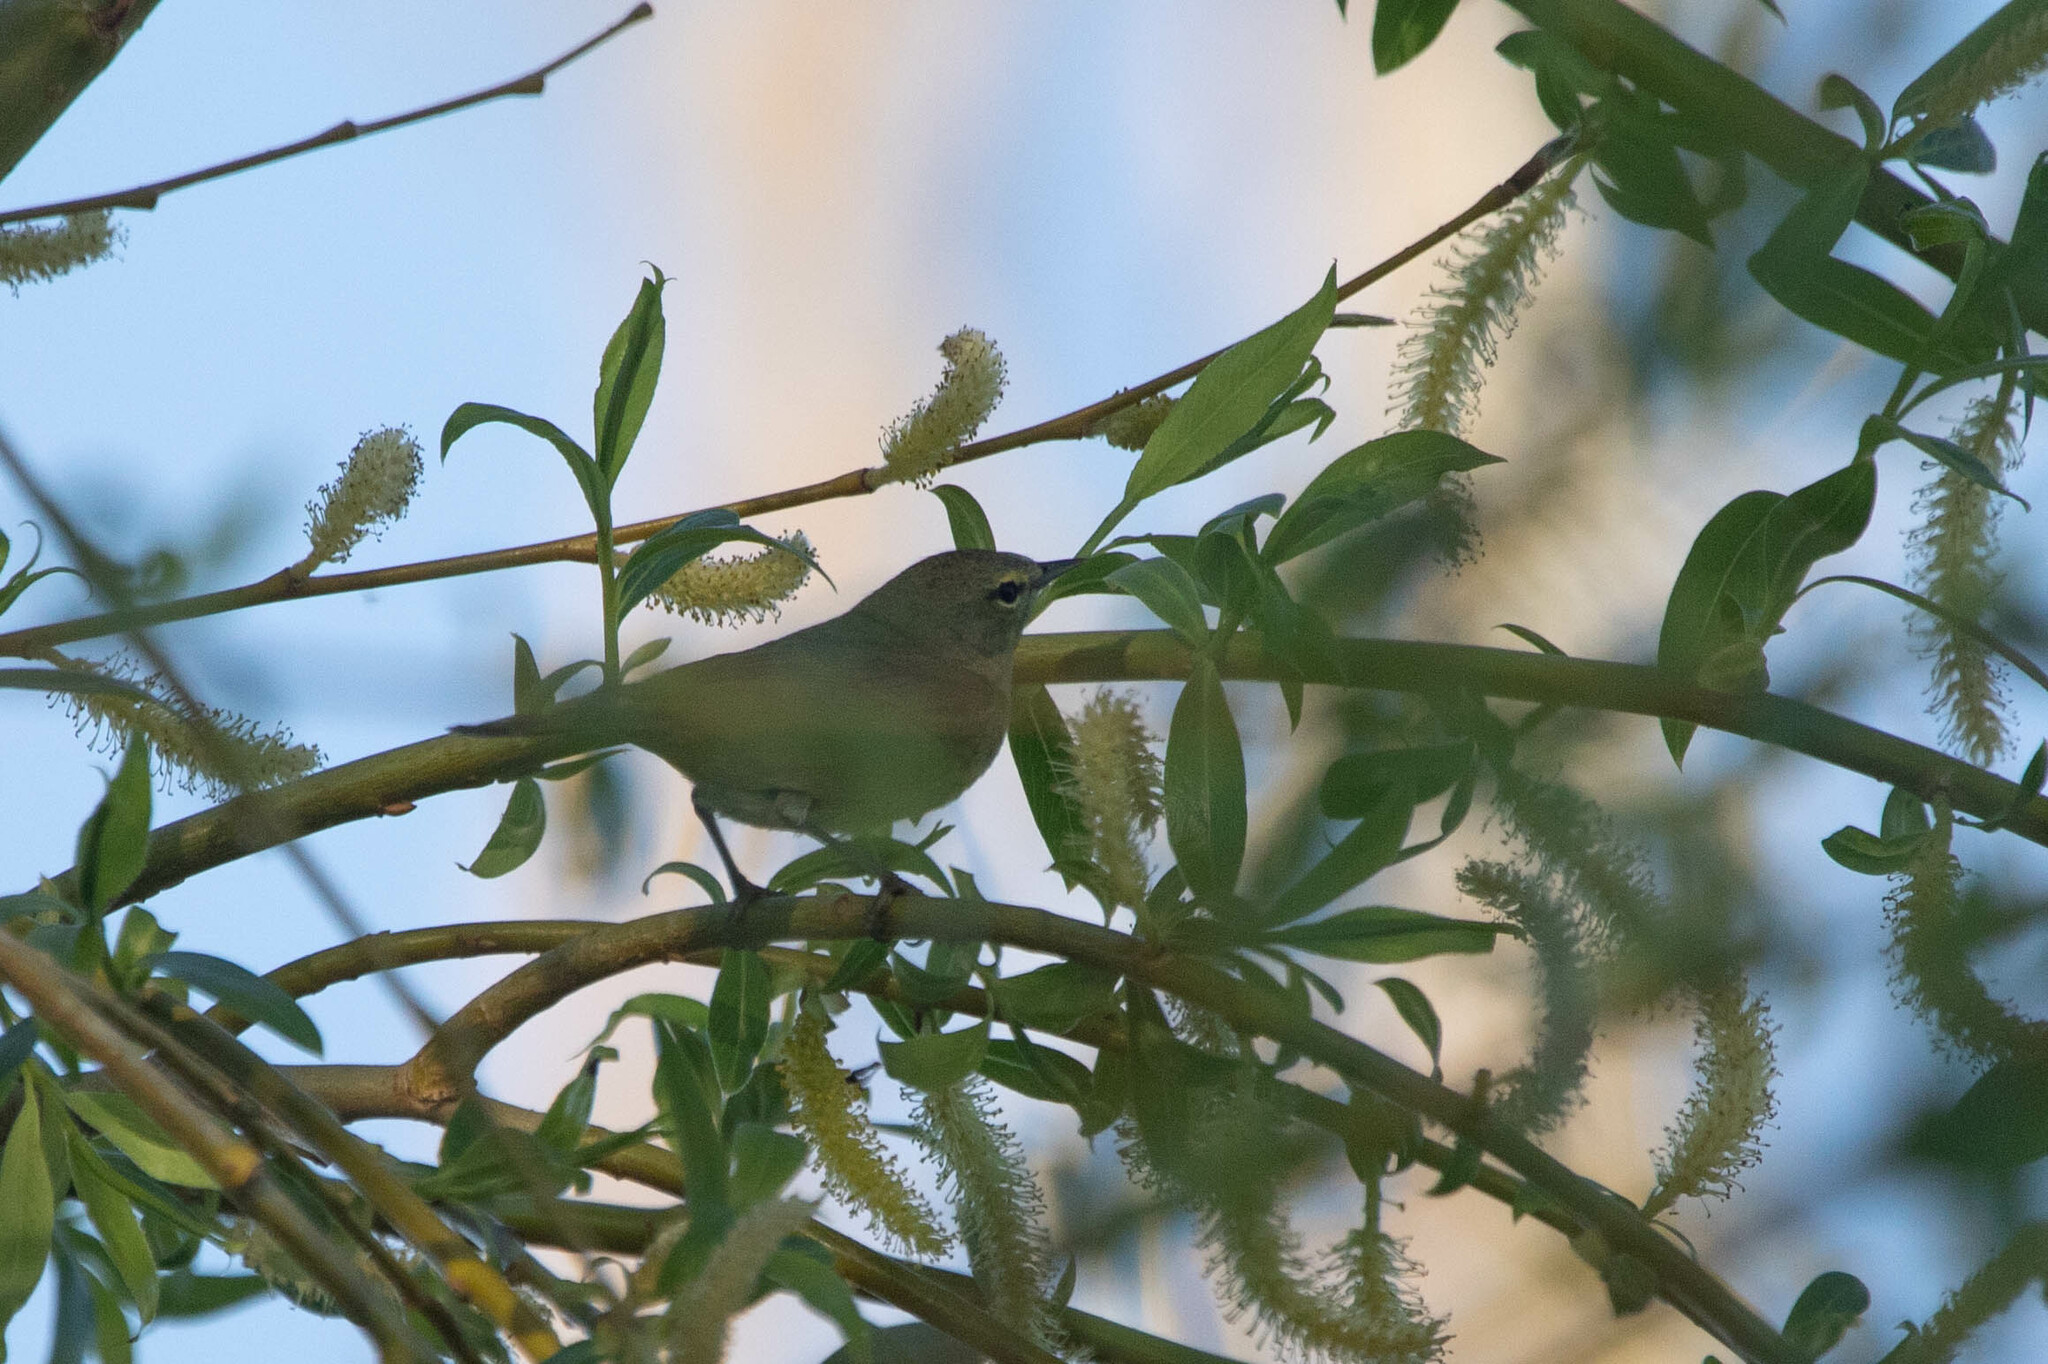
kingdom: Animalia
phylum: Chordata
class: Aves
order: Passeriformes
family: Parulidae
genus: Leiothlypis
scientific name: Leiothlypis celata
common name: Orange-crowned warbler
